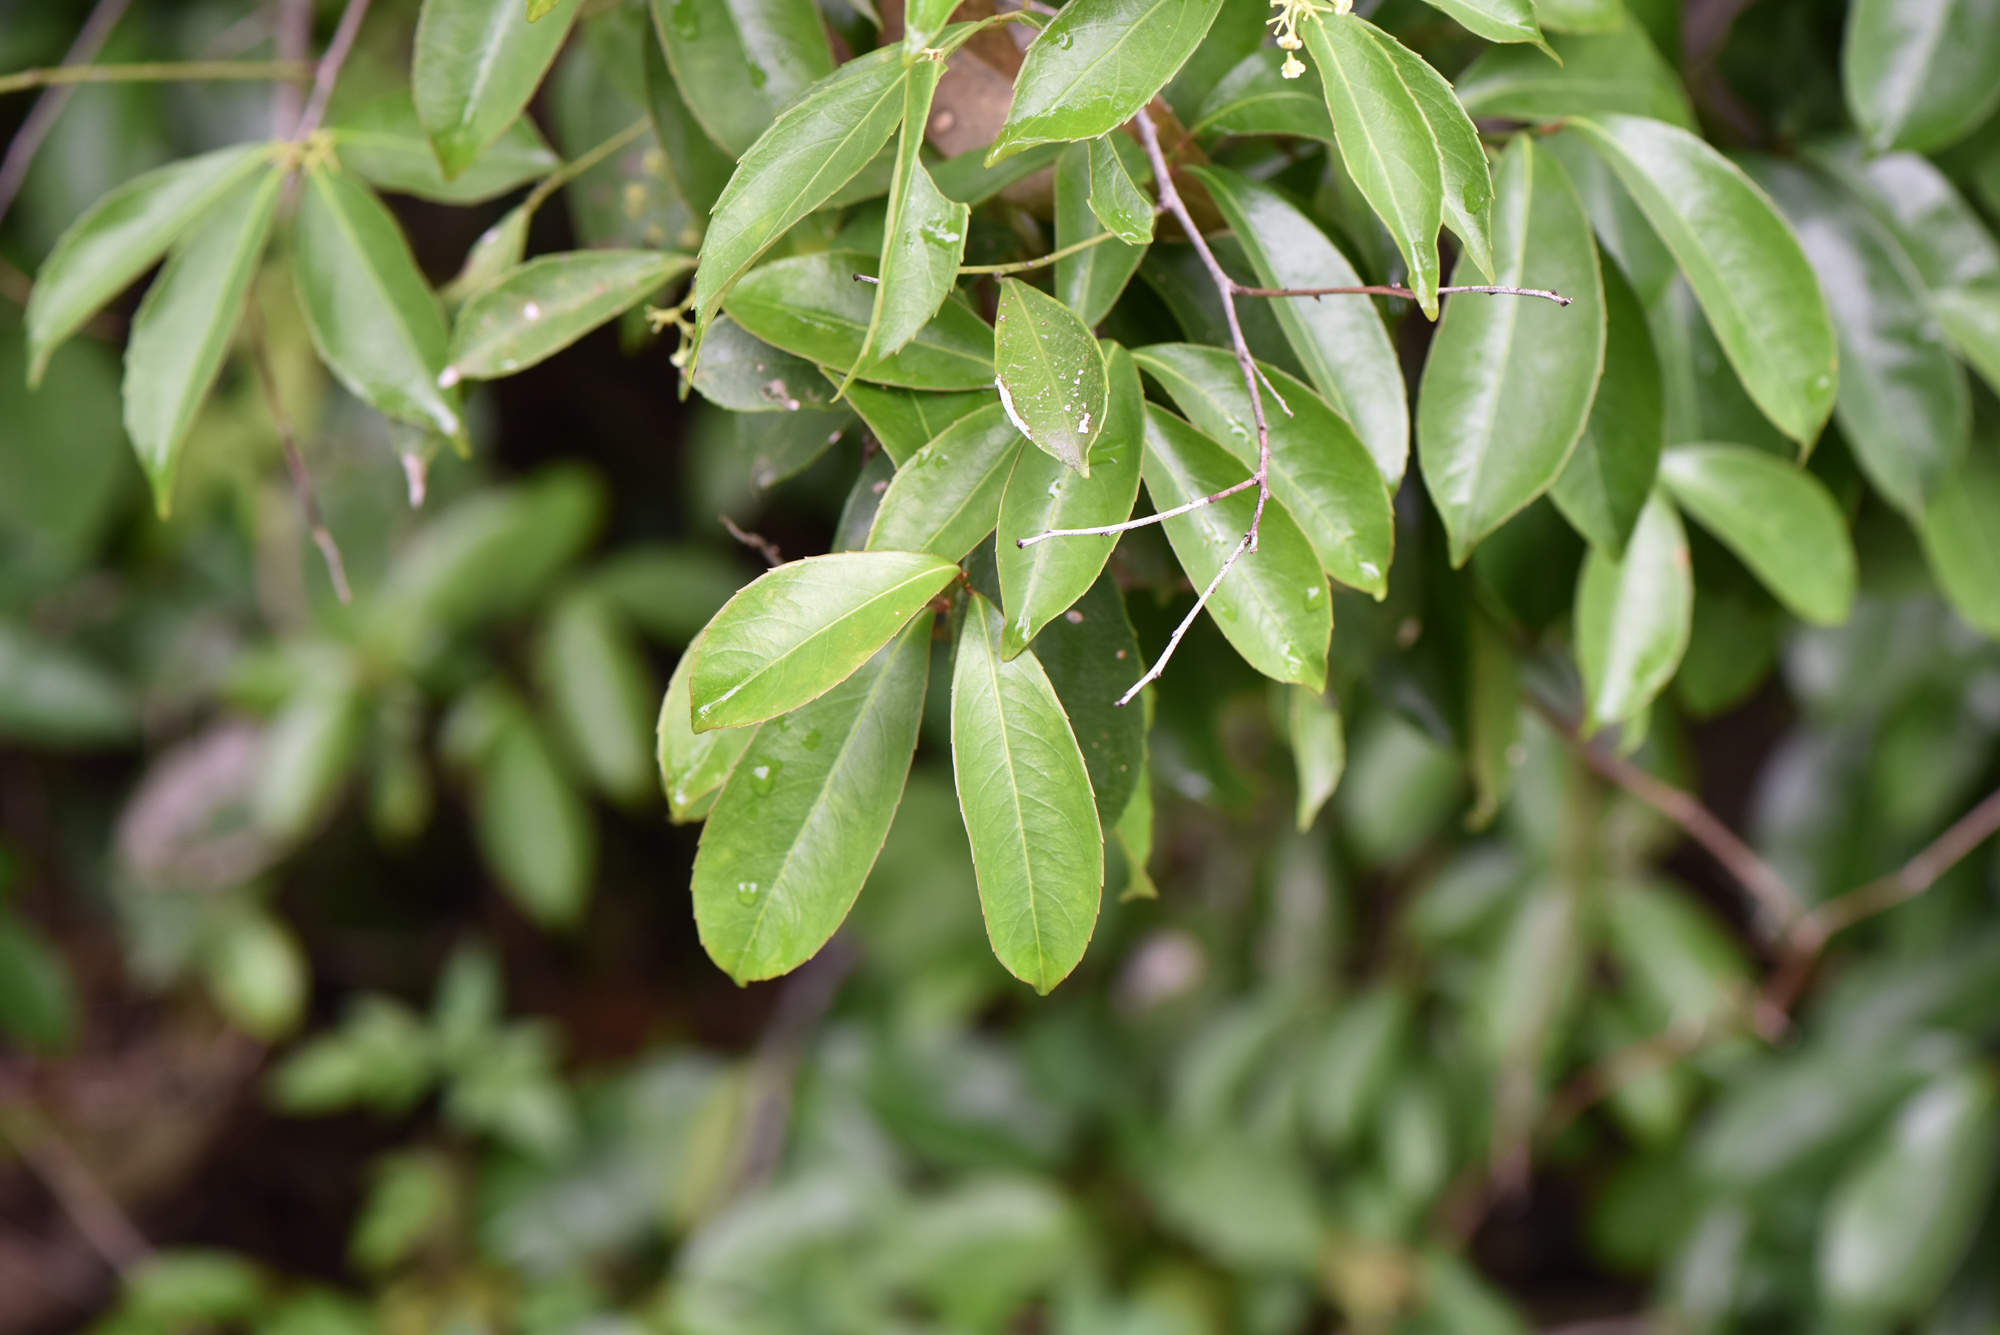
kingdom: Plantae
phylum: Tracheophyta
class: Magnoliopsida
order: Celastrales
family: Celastraceae
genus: Celastrus
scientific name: Celastrus hindsii
